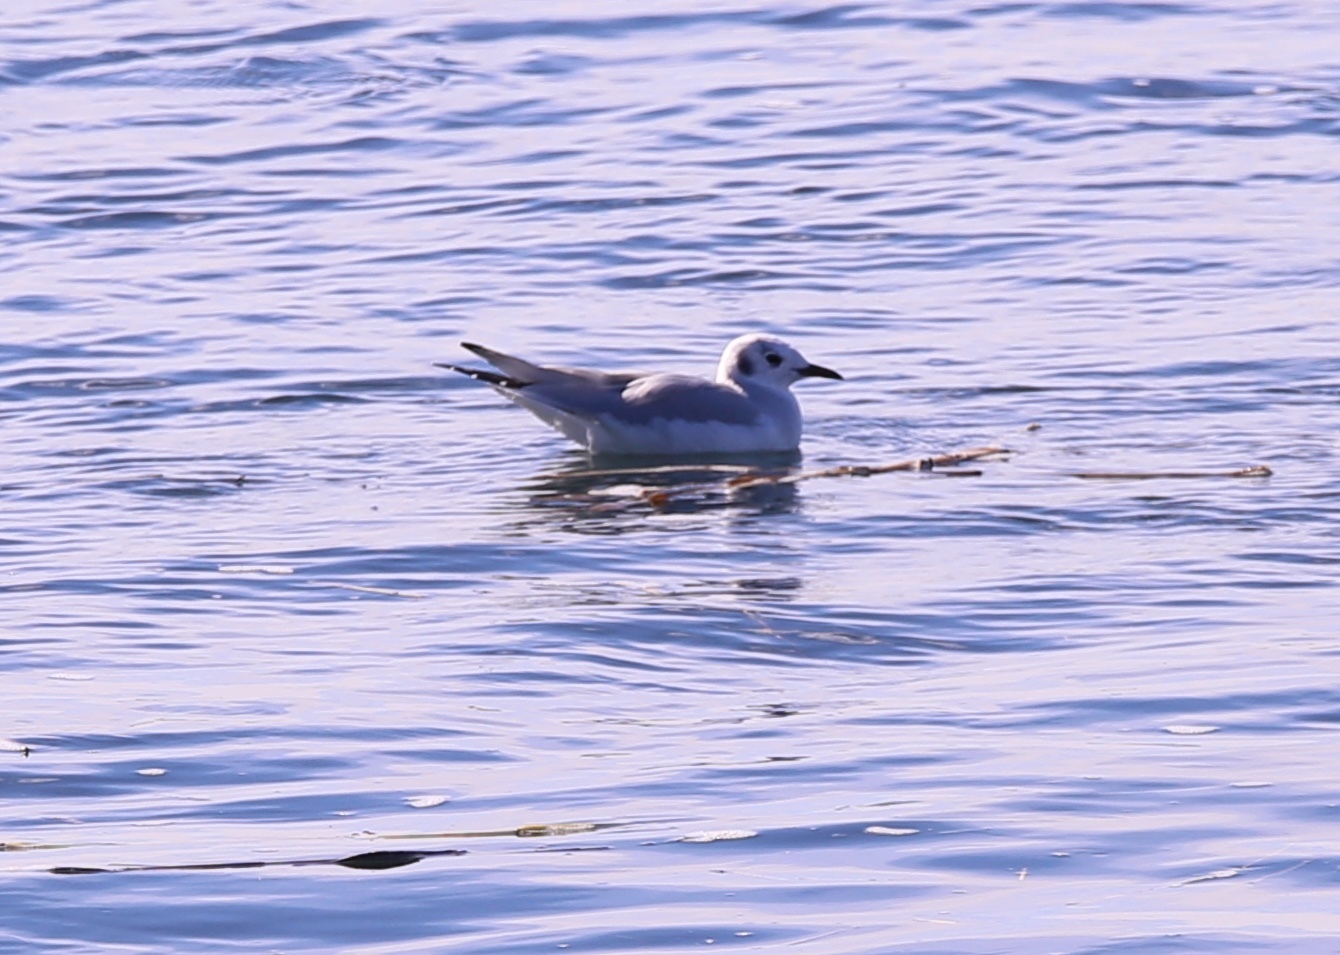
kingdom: Animalia
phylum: Chordata
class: Aves
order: Charadriiformes
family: Laridae
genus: Chroicocephalus
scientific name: Chroicocephalus philadelphia
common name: Bonaparte's gull
